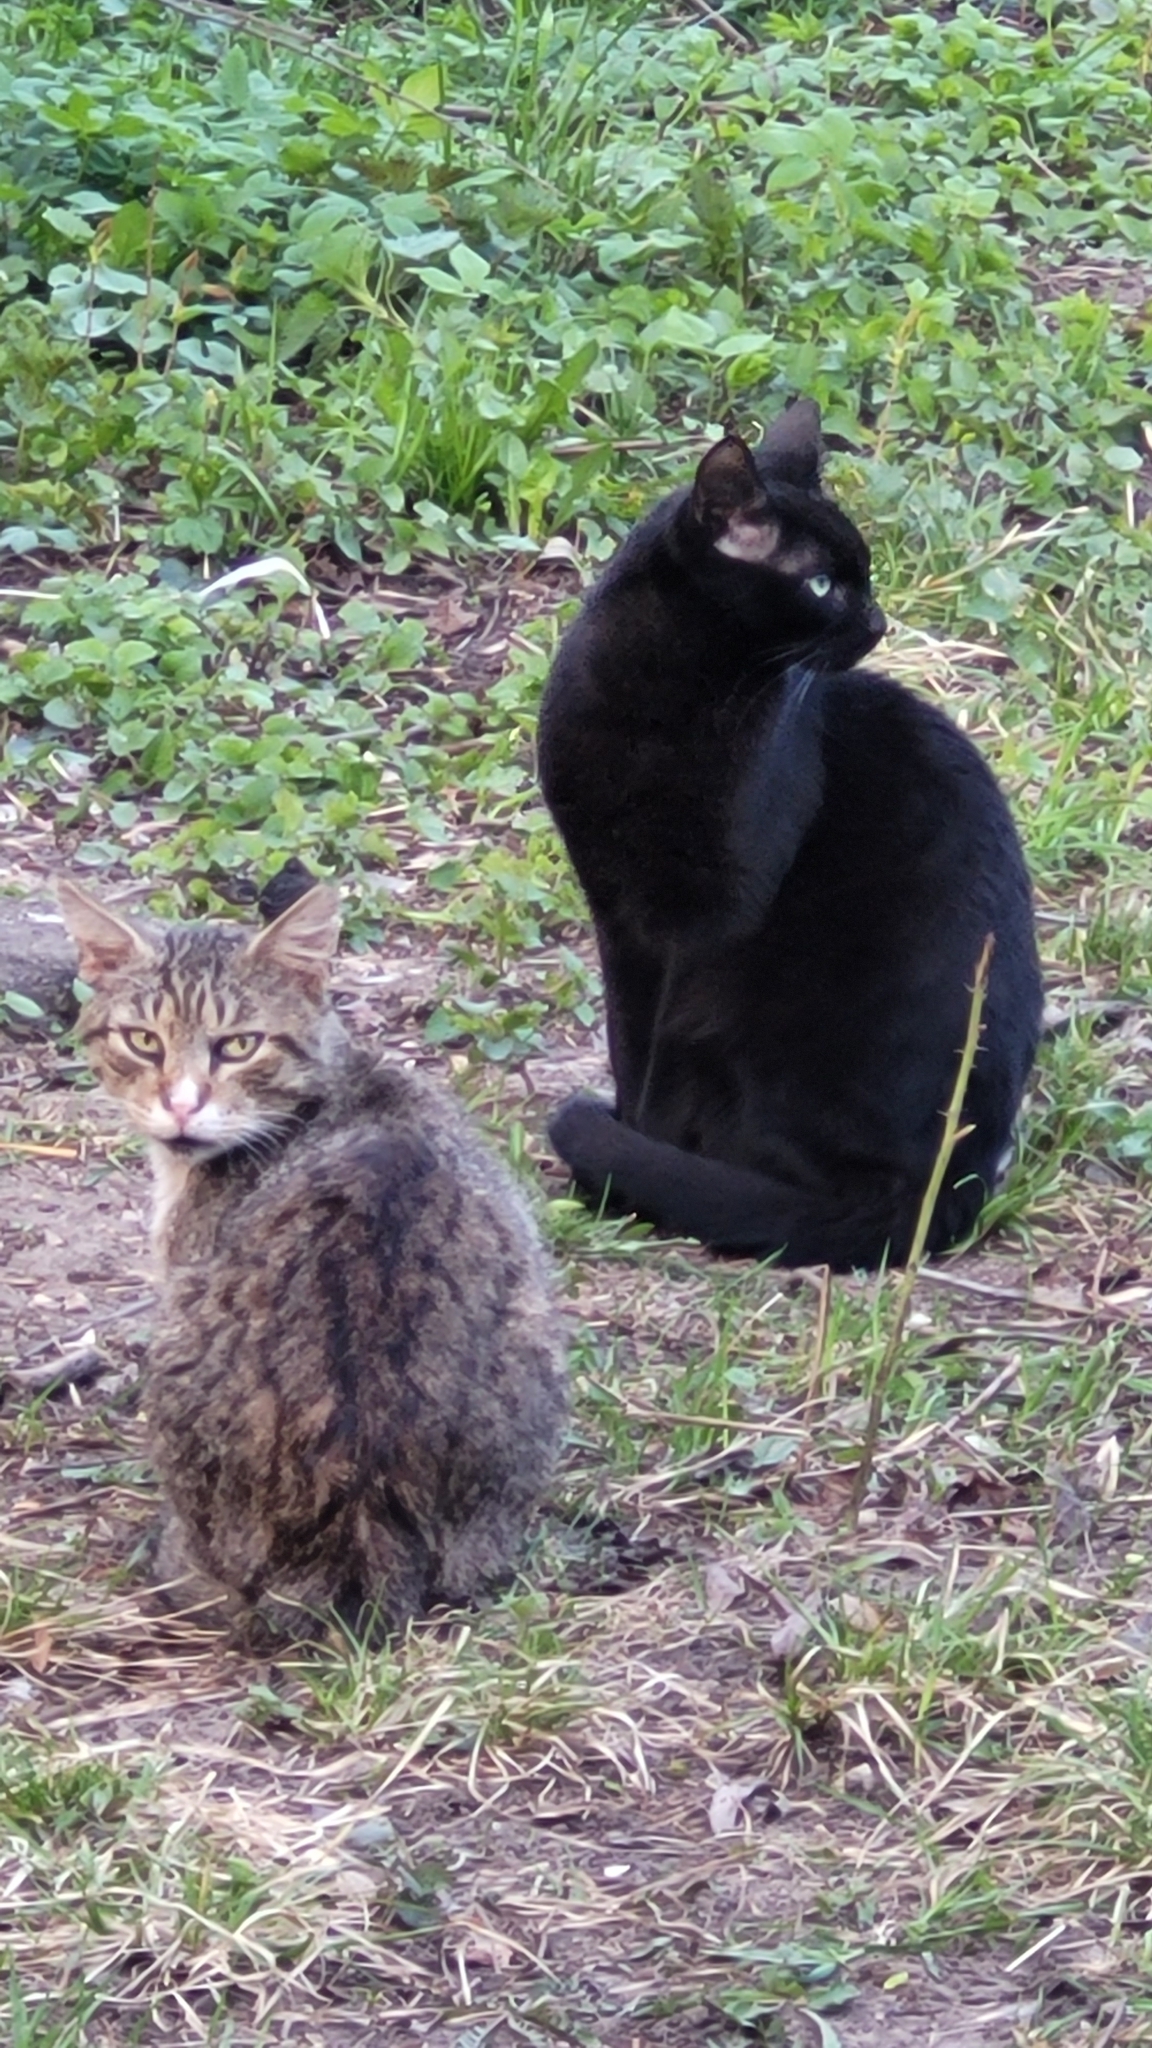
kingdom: Animalia
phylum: Chordata
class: Mammalia
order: Carnivora
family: Felidae
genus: Felis
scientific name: Felis catus
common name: Domestic cat
